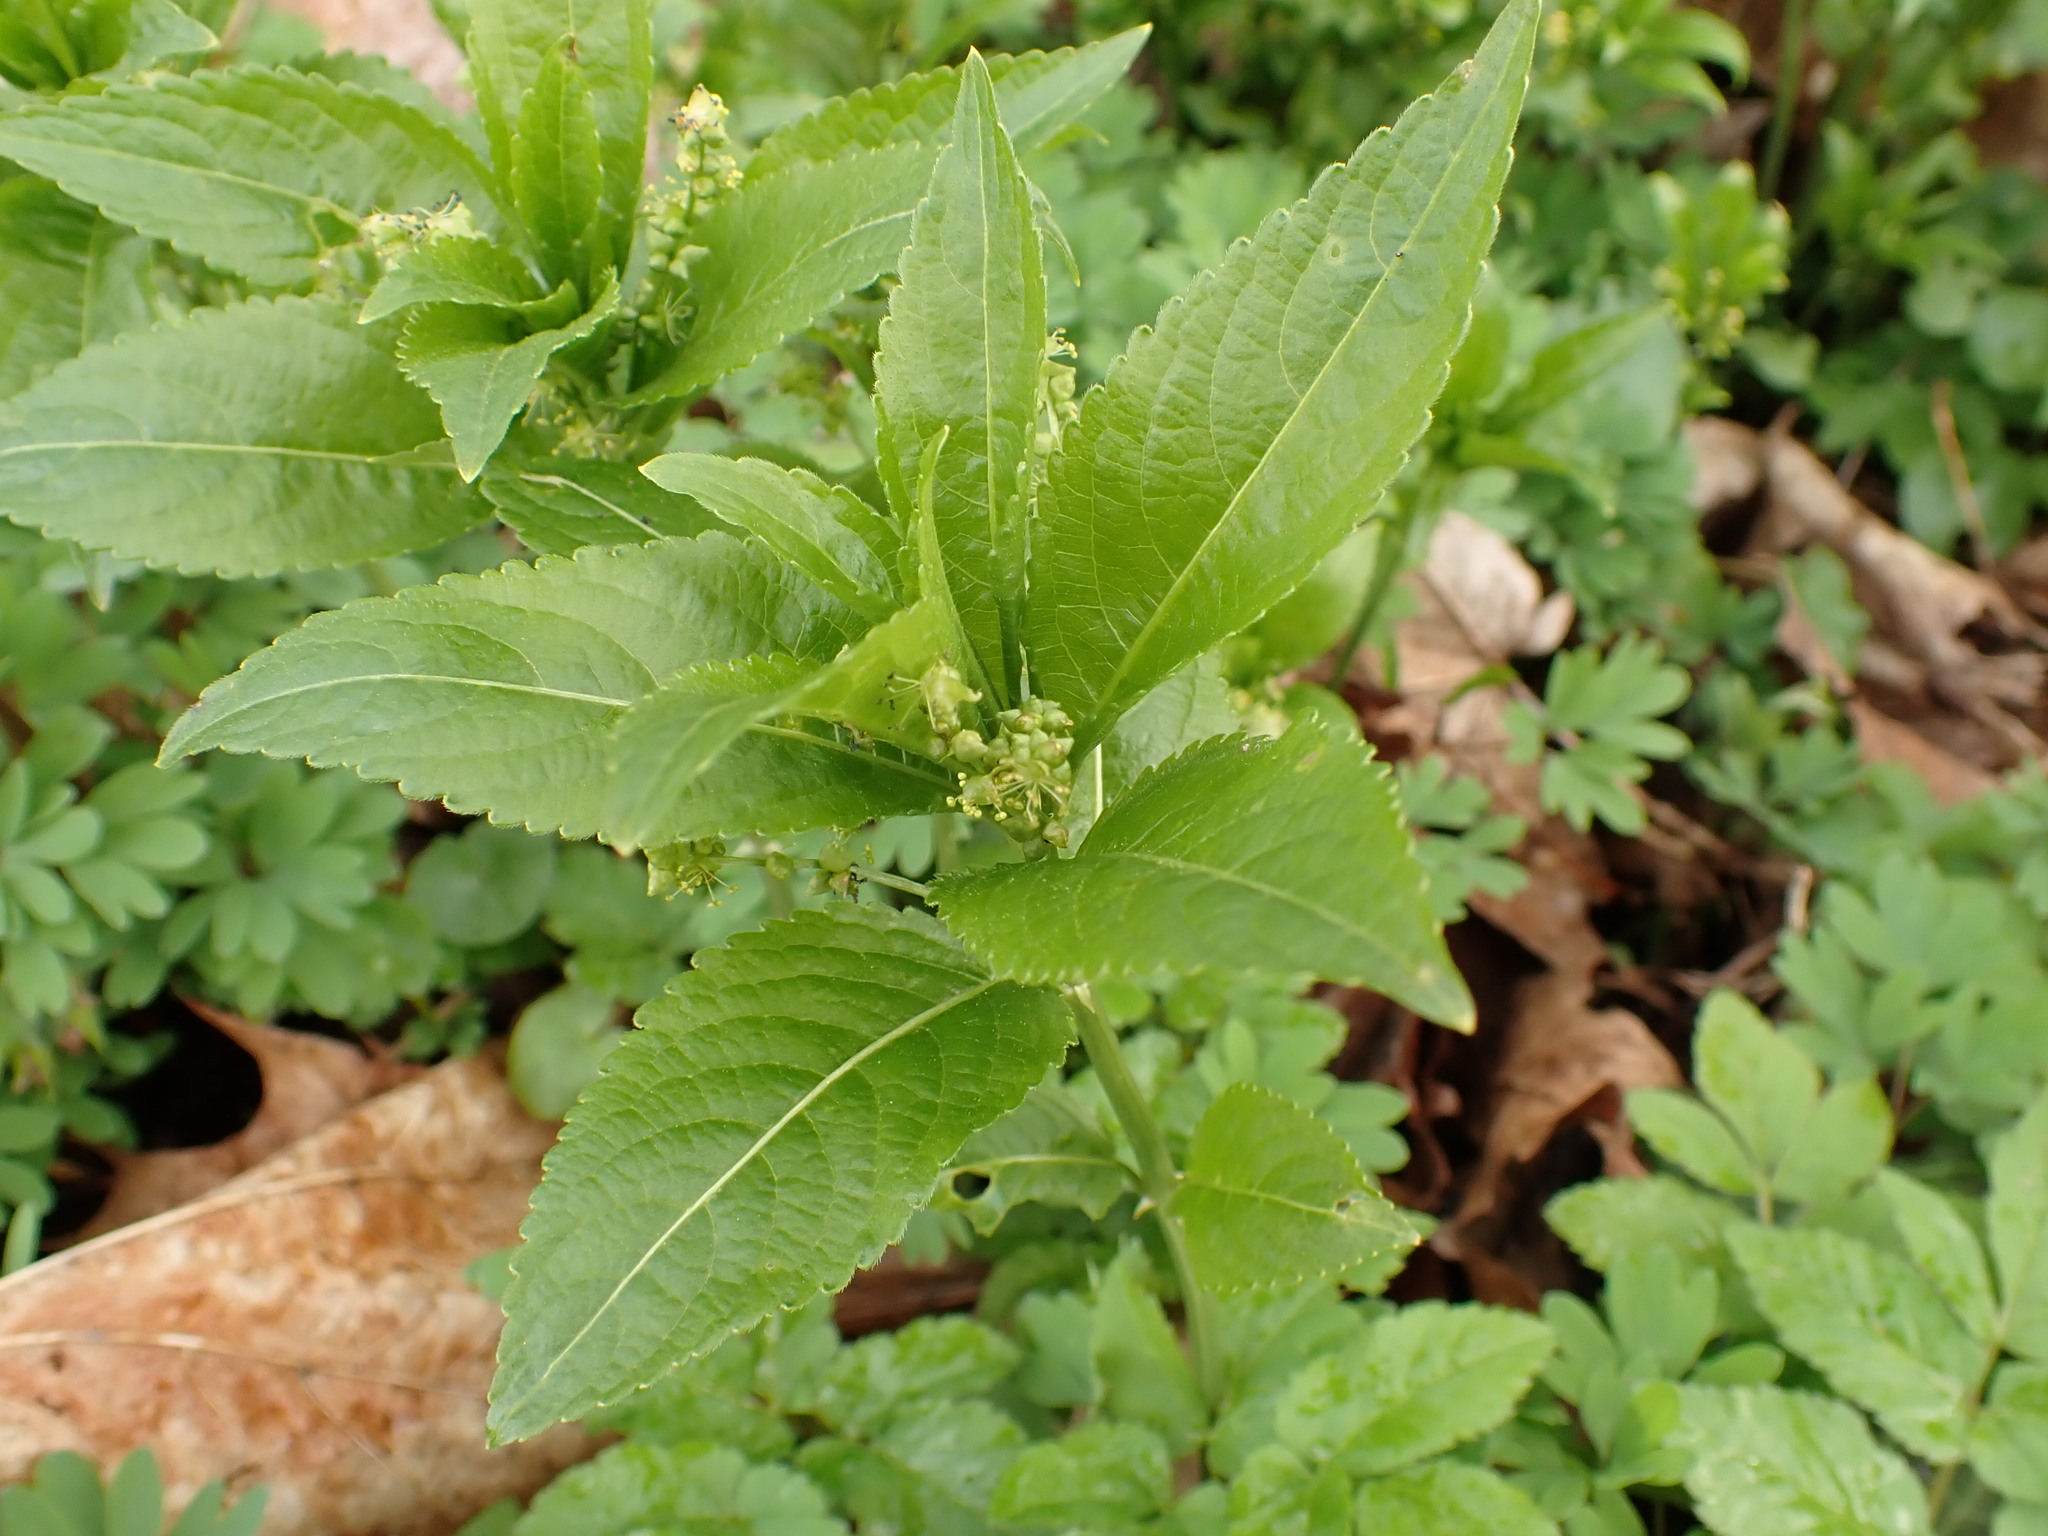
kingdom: Plantae
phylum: Tracheophyta
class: Magnoliopsida
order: Malpighiales
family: Euphorbiaceae
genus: Mercurialis
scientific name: Mercurialis perennis
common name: Dog mercury
